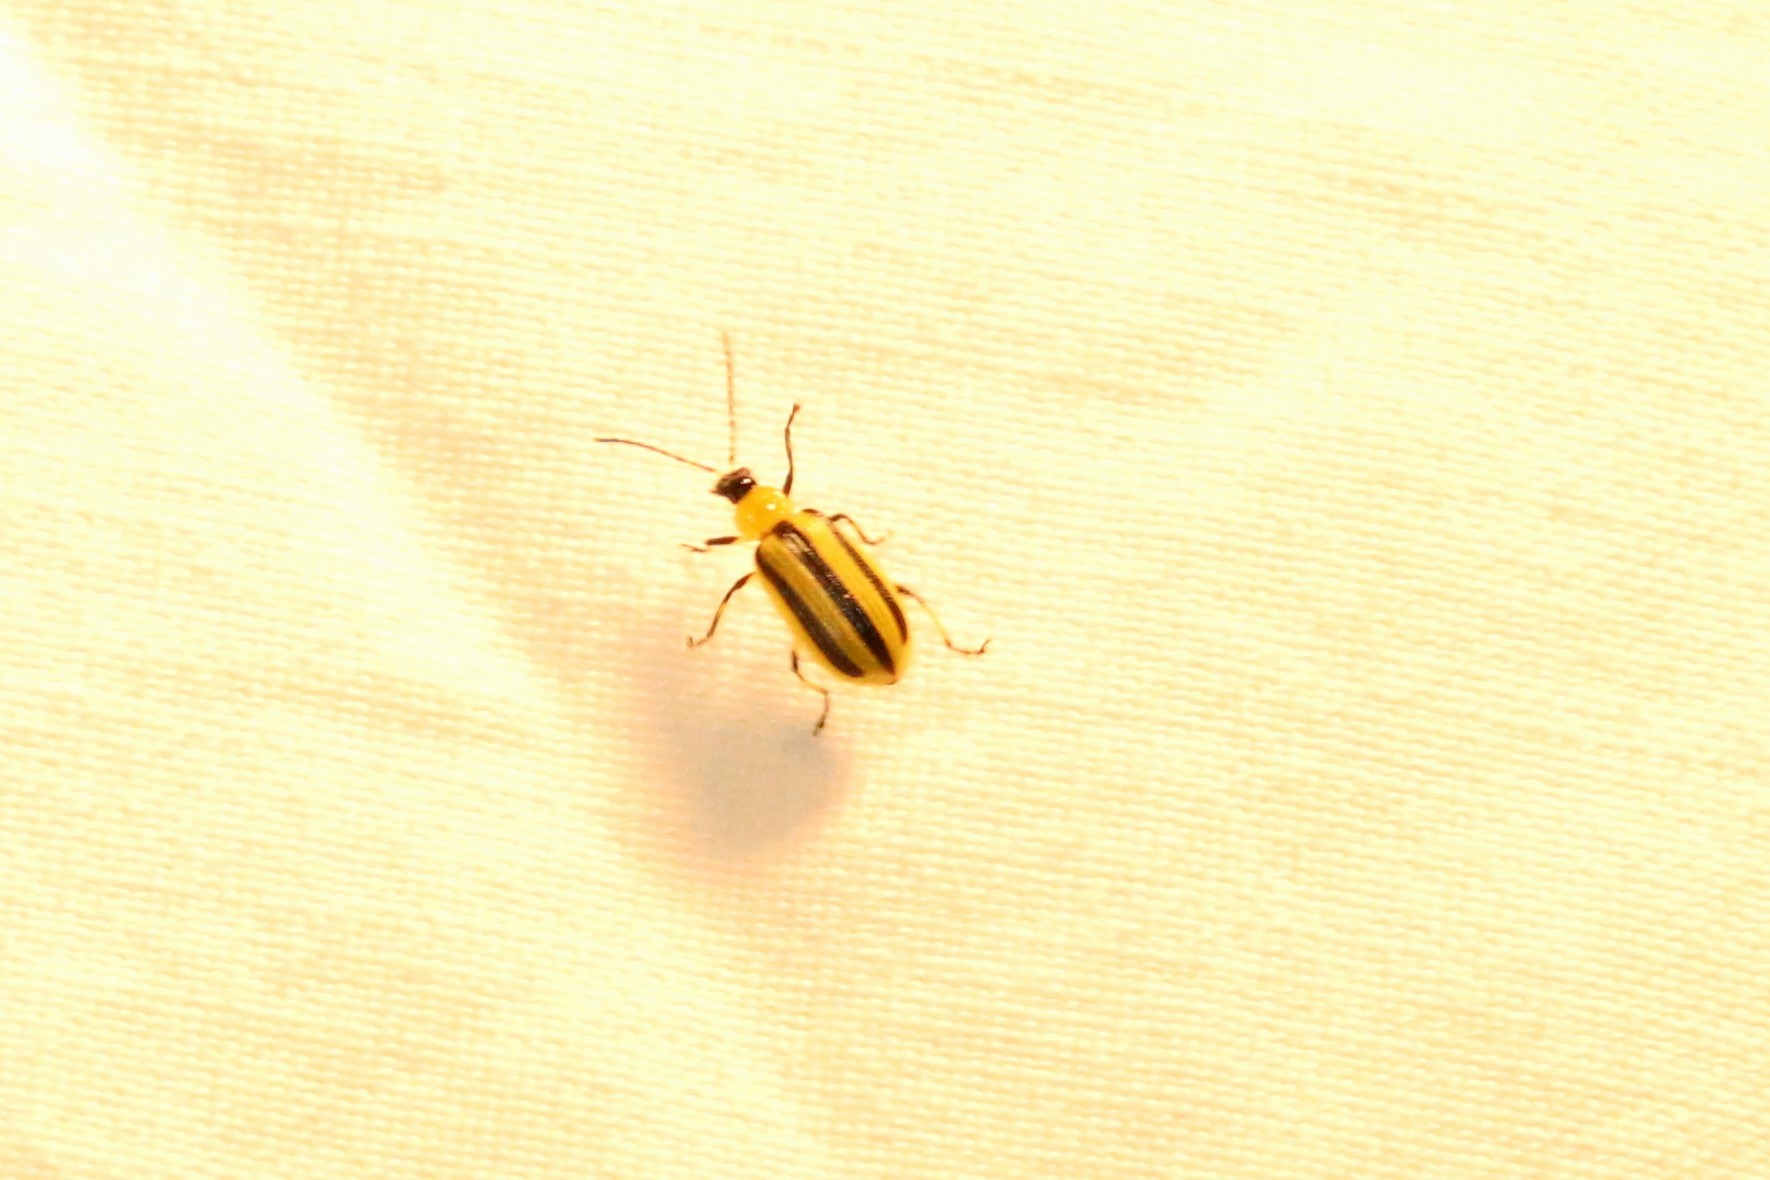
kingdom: Animalia
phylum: Arthropoda
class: Insecta
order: Coleoptera
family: Chrysomelidae
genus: Acalymma
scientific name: Acalymma vittatum
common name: Striped cucumber beetle
